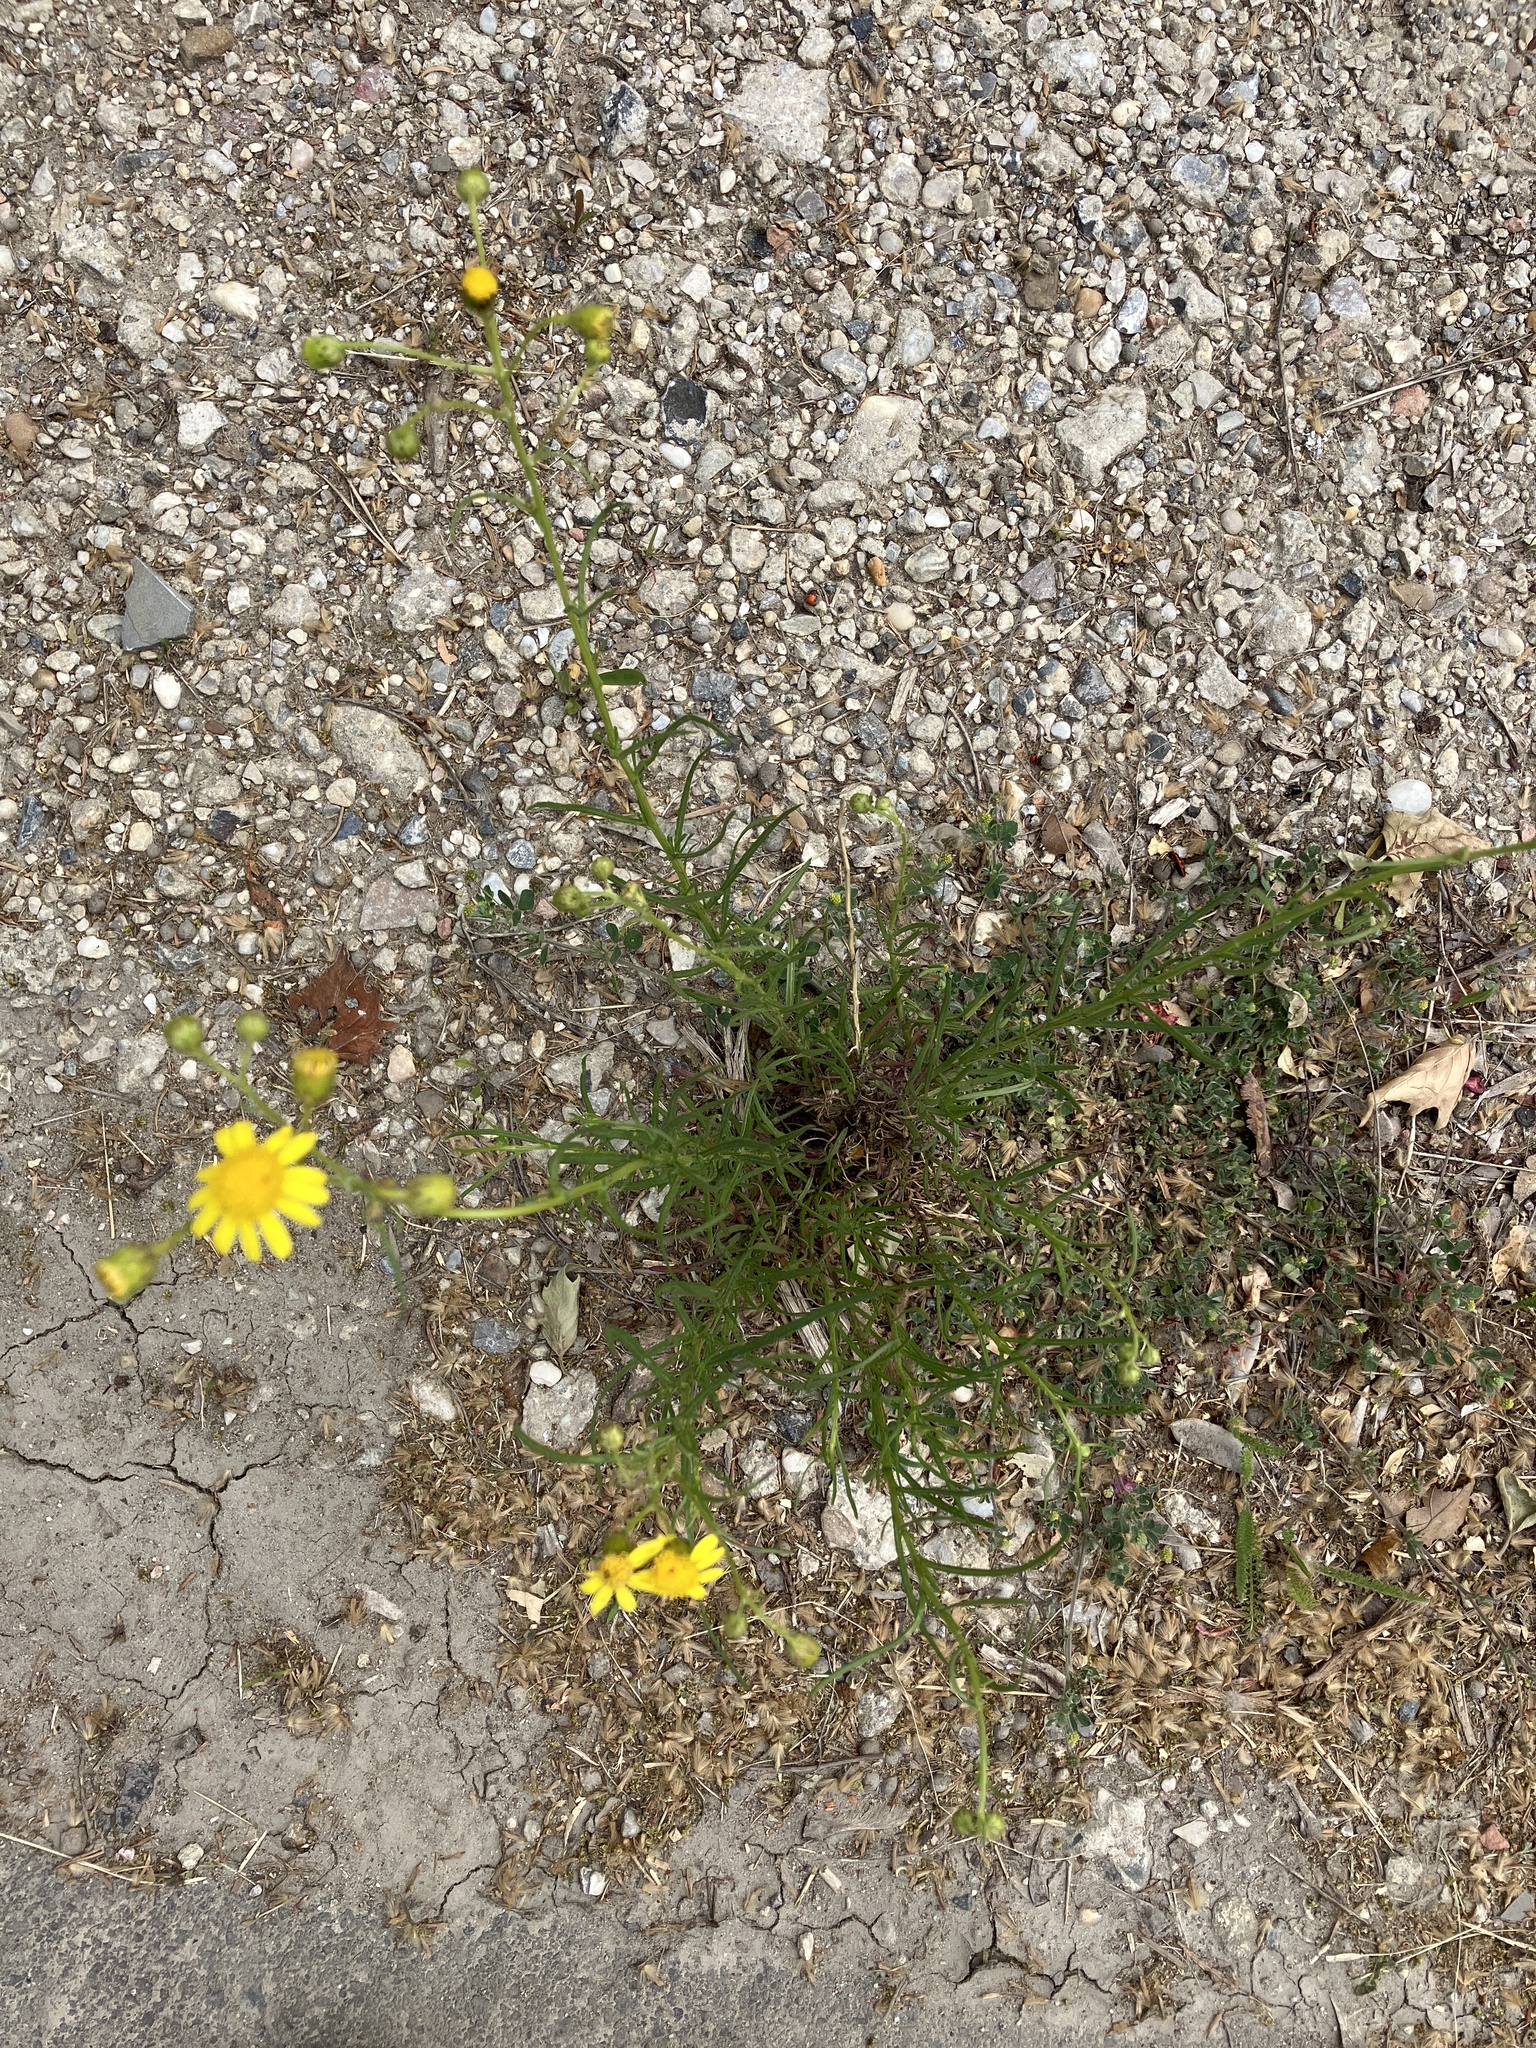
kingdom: Plantae
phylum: Tracheophyta
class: Magnoliopsida
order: Asterales
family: Asteraceae
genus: Senecio
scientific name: Senecio inaequidens
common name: Narrow-leaved ragwort
